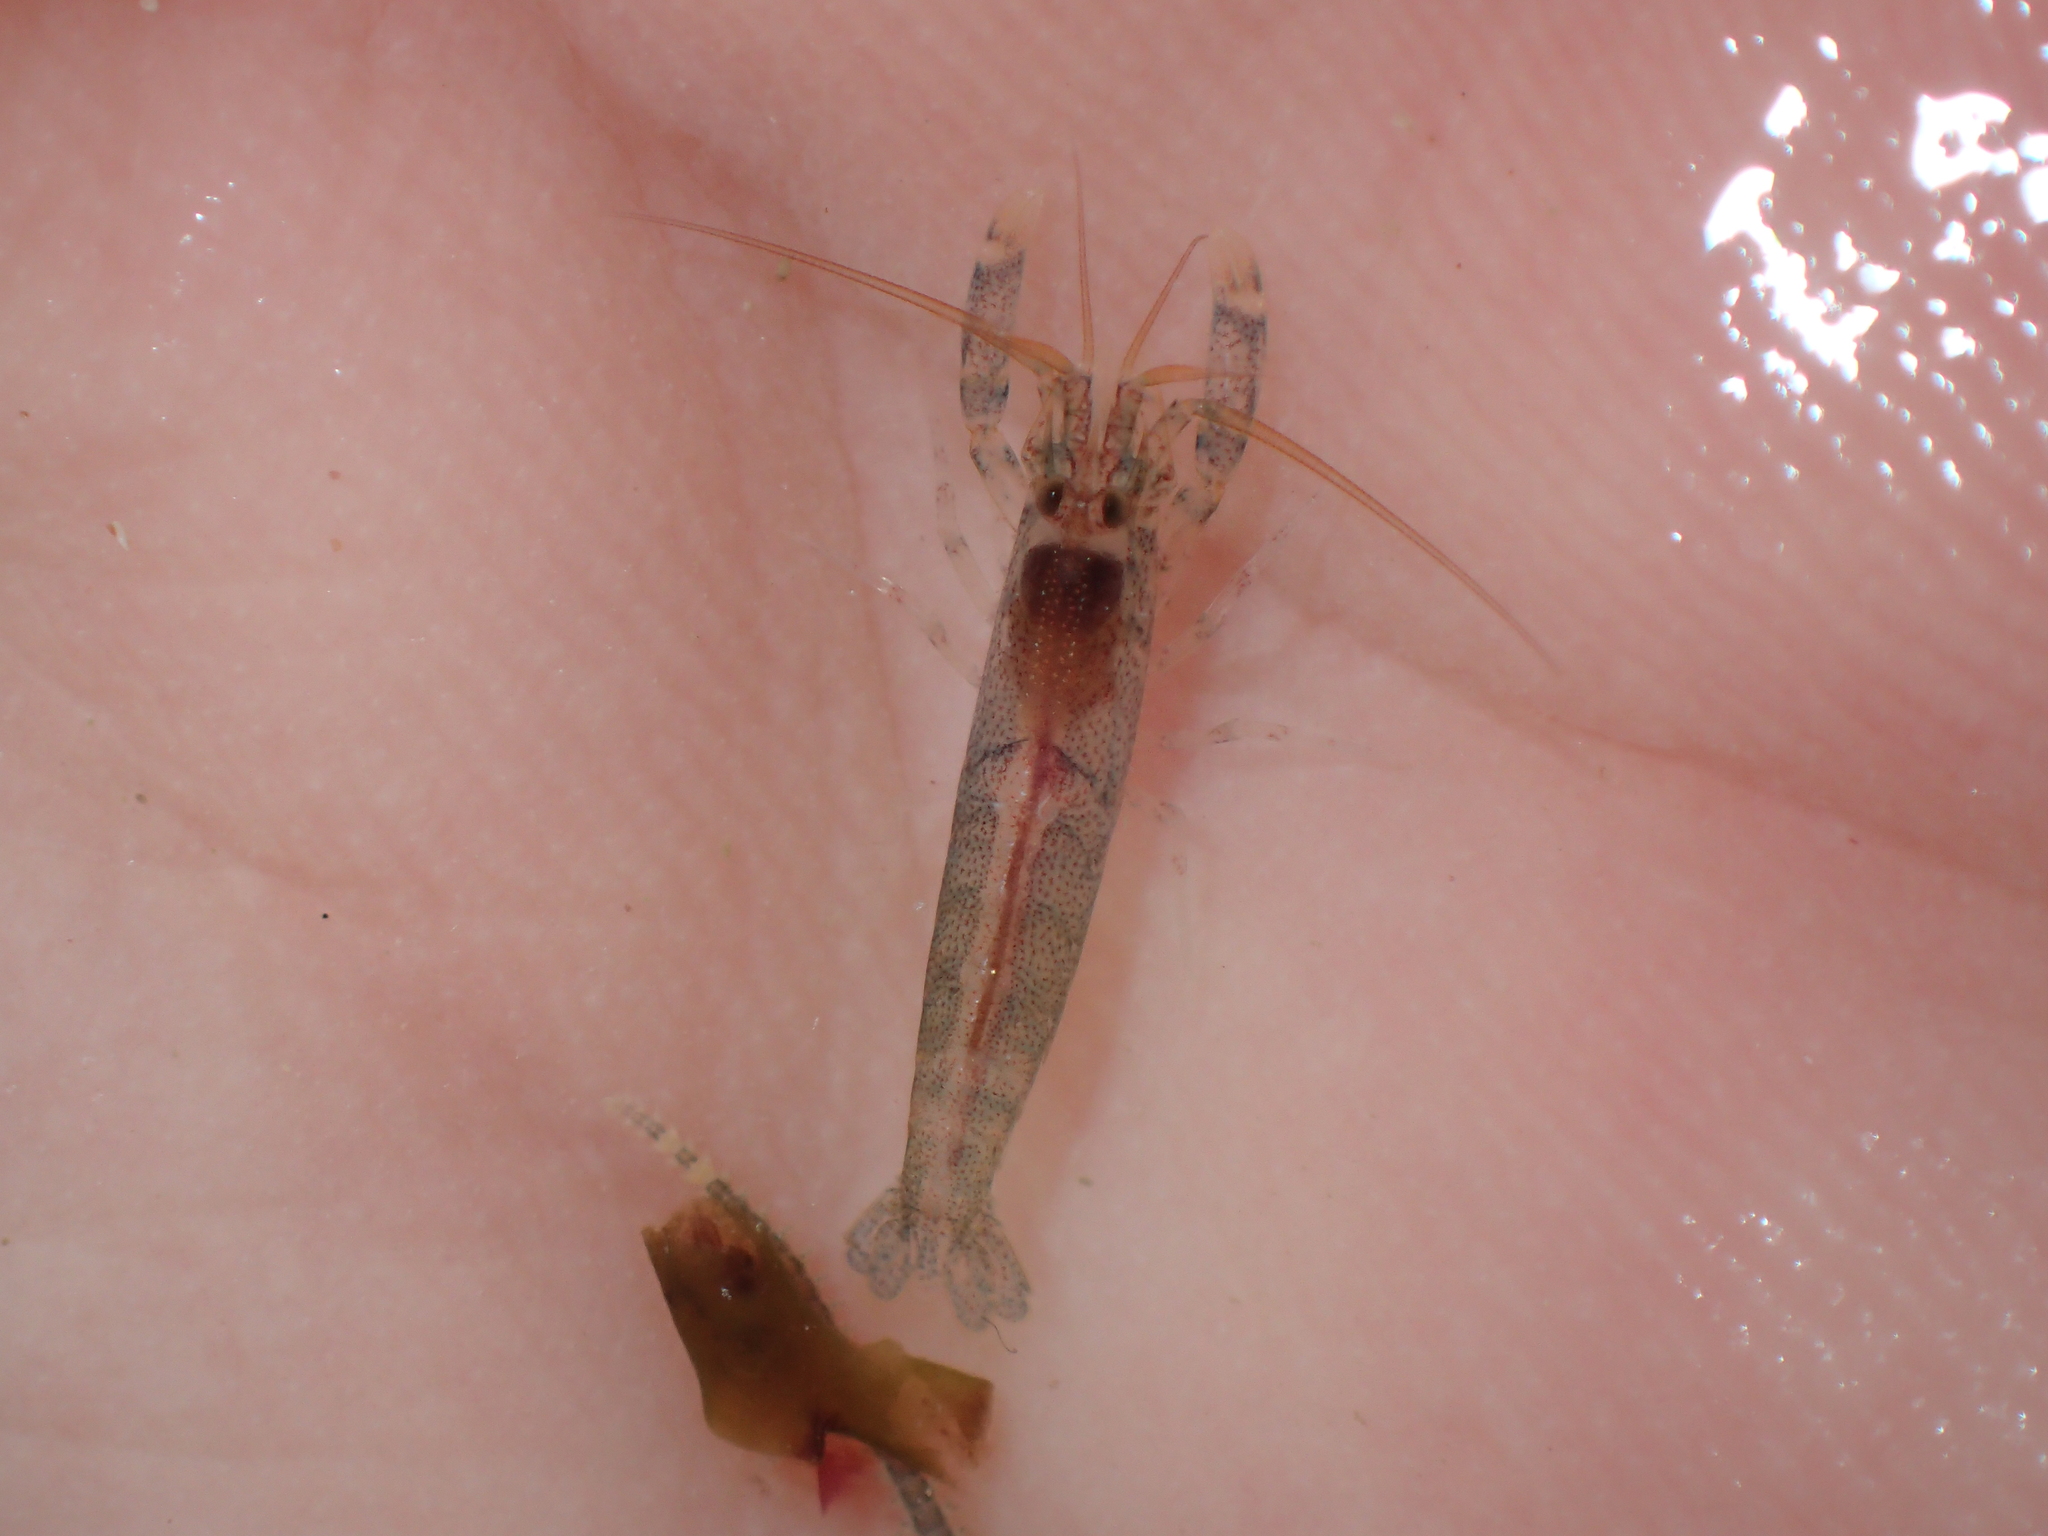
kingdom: Animalia
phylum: Arthropoda
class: Malacostraca
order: Decapoda
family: Alpheidae
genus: Athanas
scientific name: Athanas nitescens
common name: Hooded shrimp
